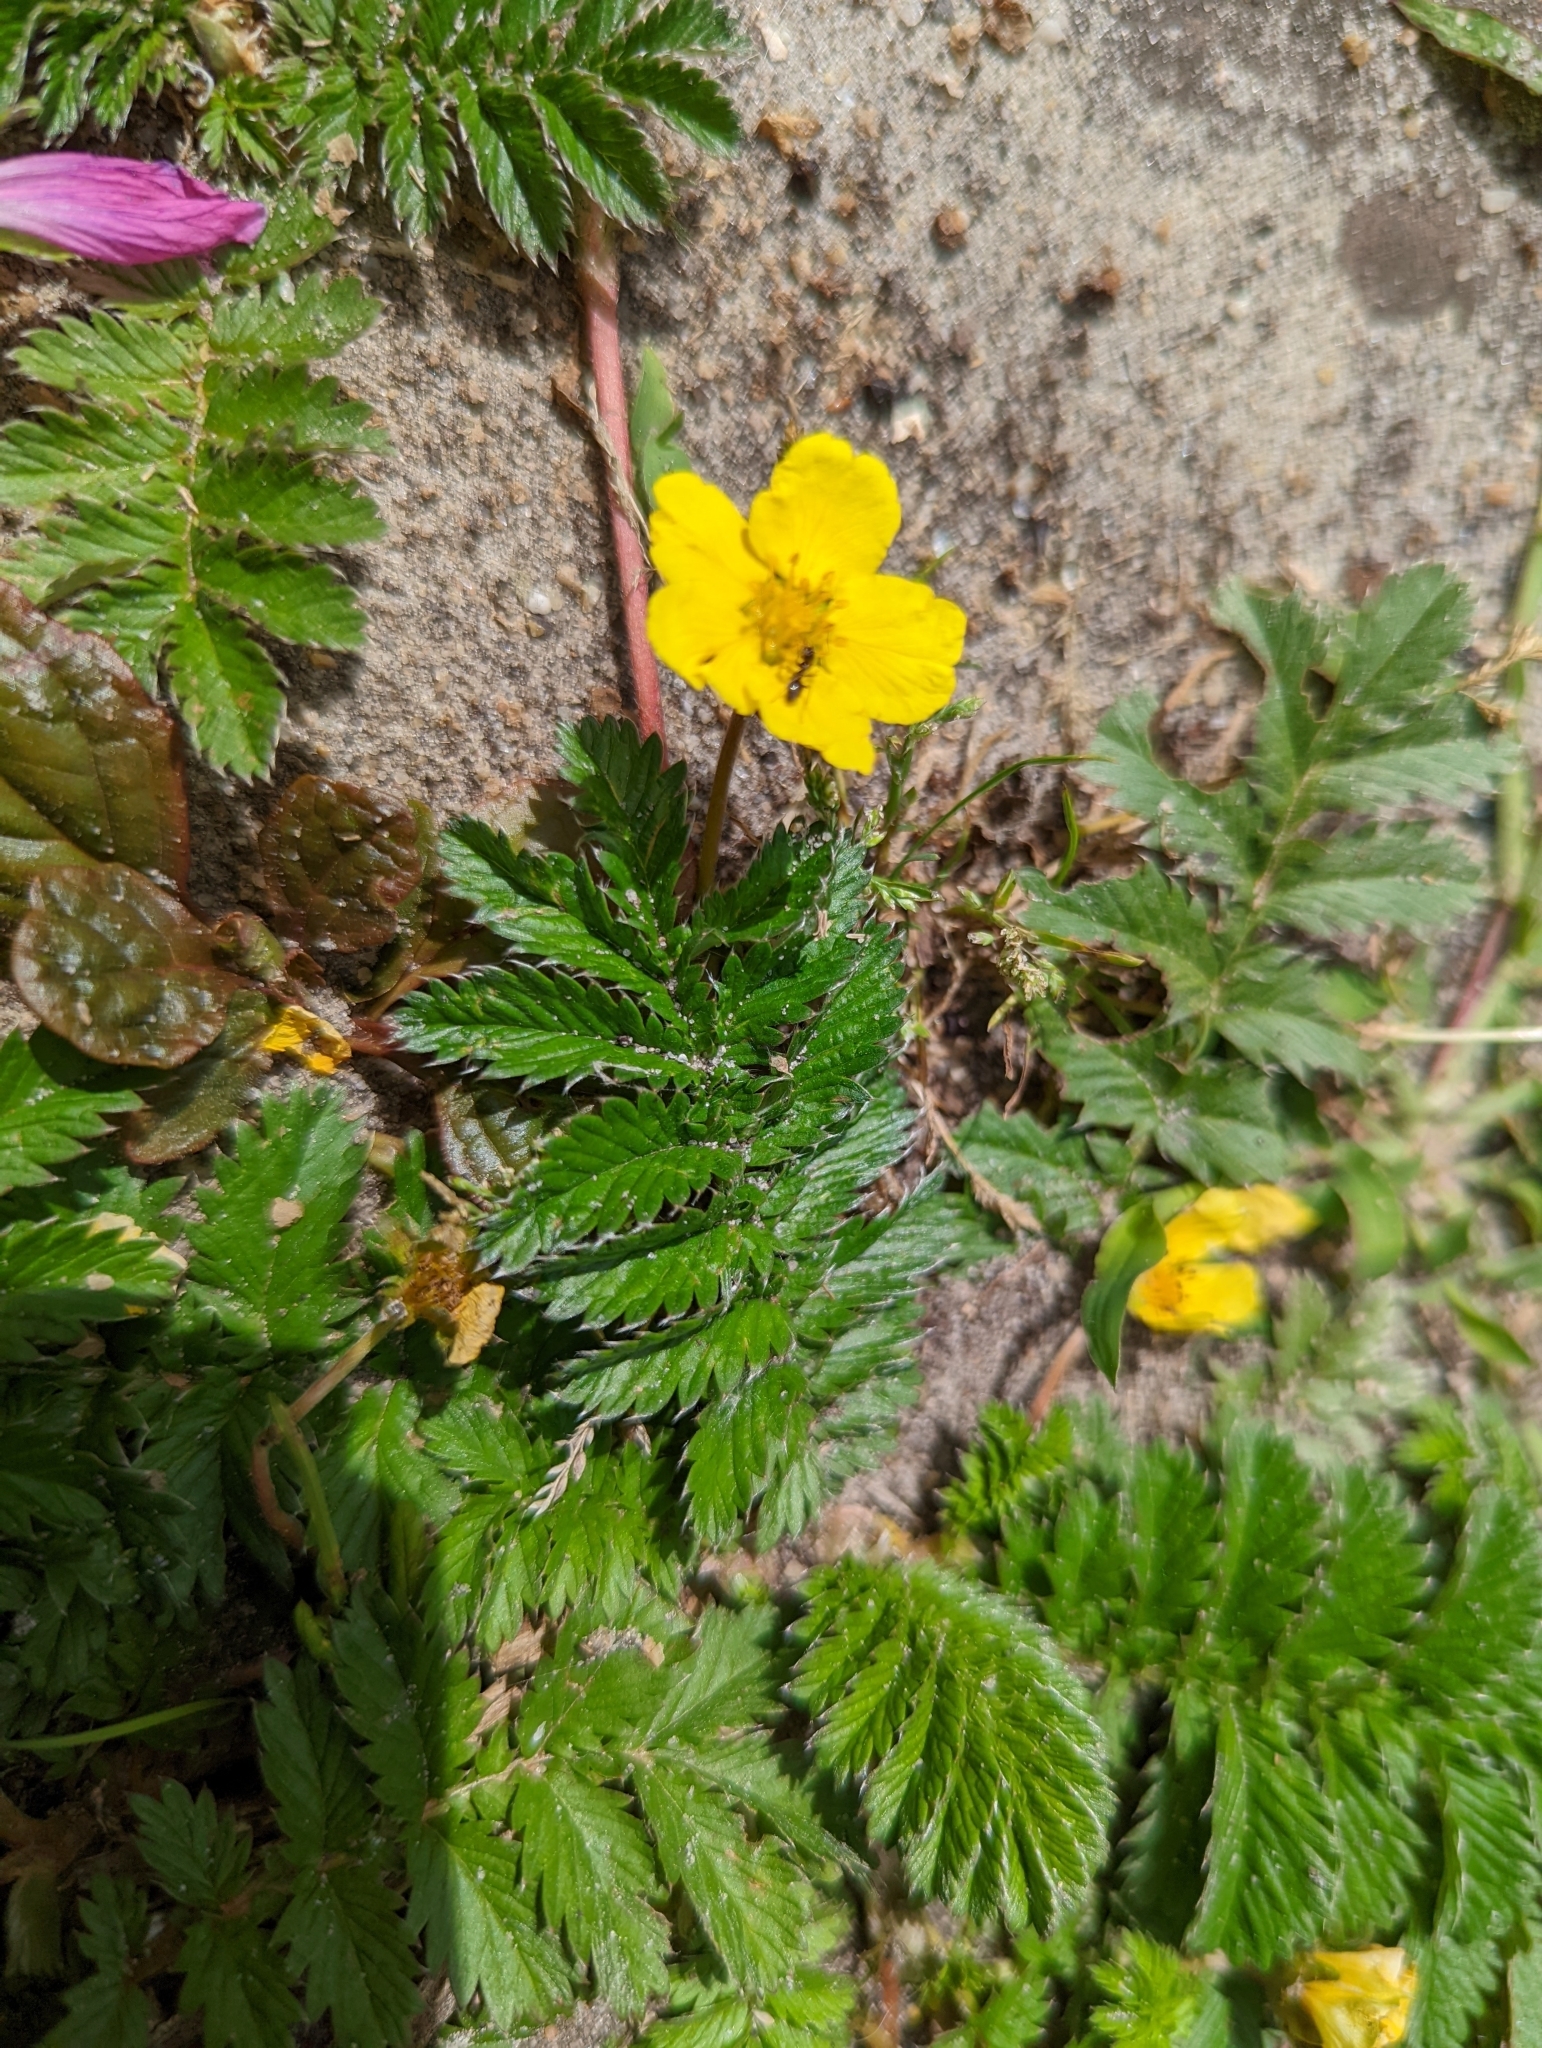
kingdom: Plantae
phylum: Tracheophyta
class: Magnoliopsida
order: Rosales
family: Rosaceae
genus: Argentina
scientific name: Argentina anserina
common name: Common silverweed
